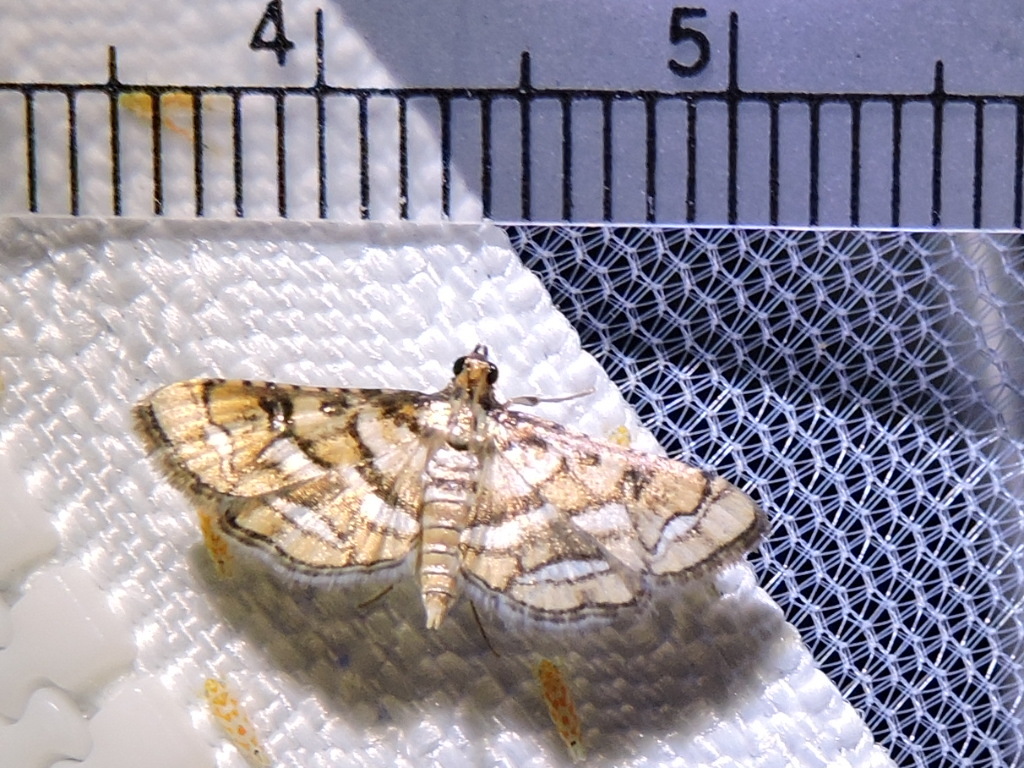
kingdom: Animalia
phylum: Arthropoda
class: Insecta
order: Lepidoptera
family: Crambidae
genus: Hileithia
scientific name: Hileithia magualis
